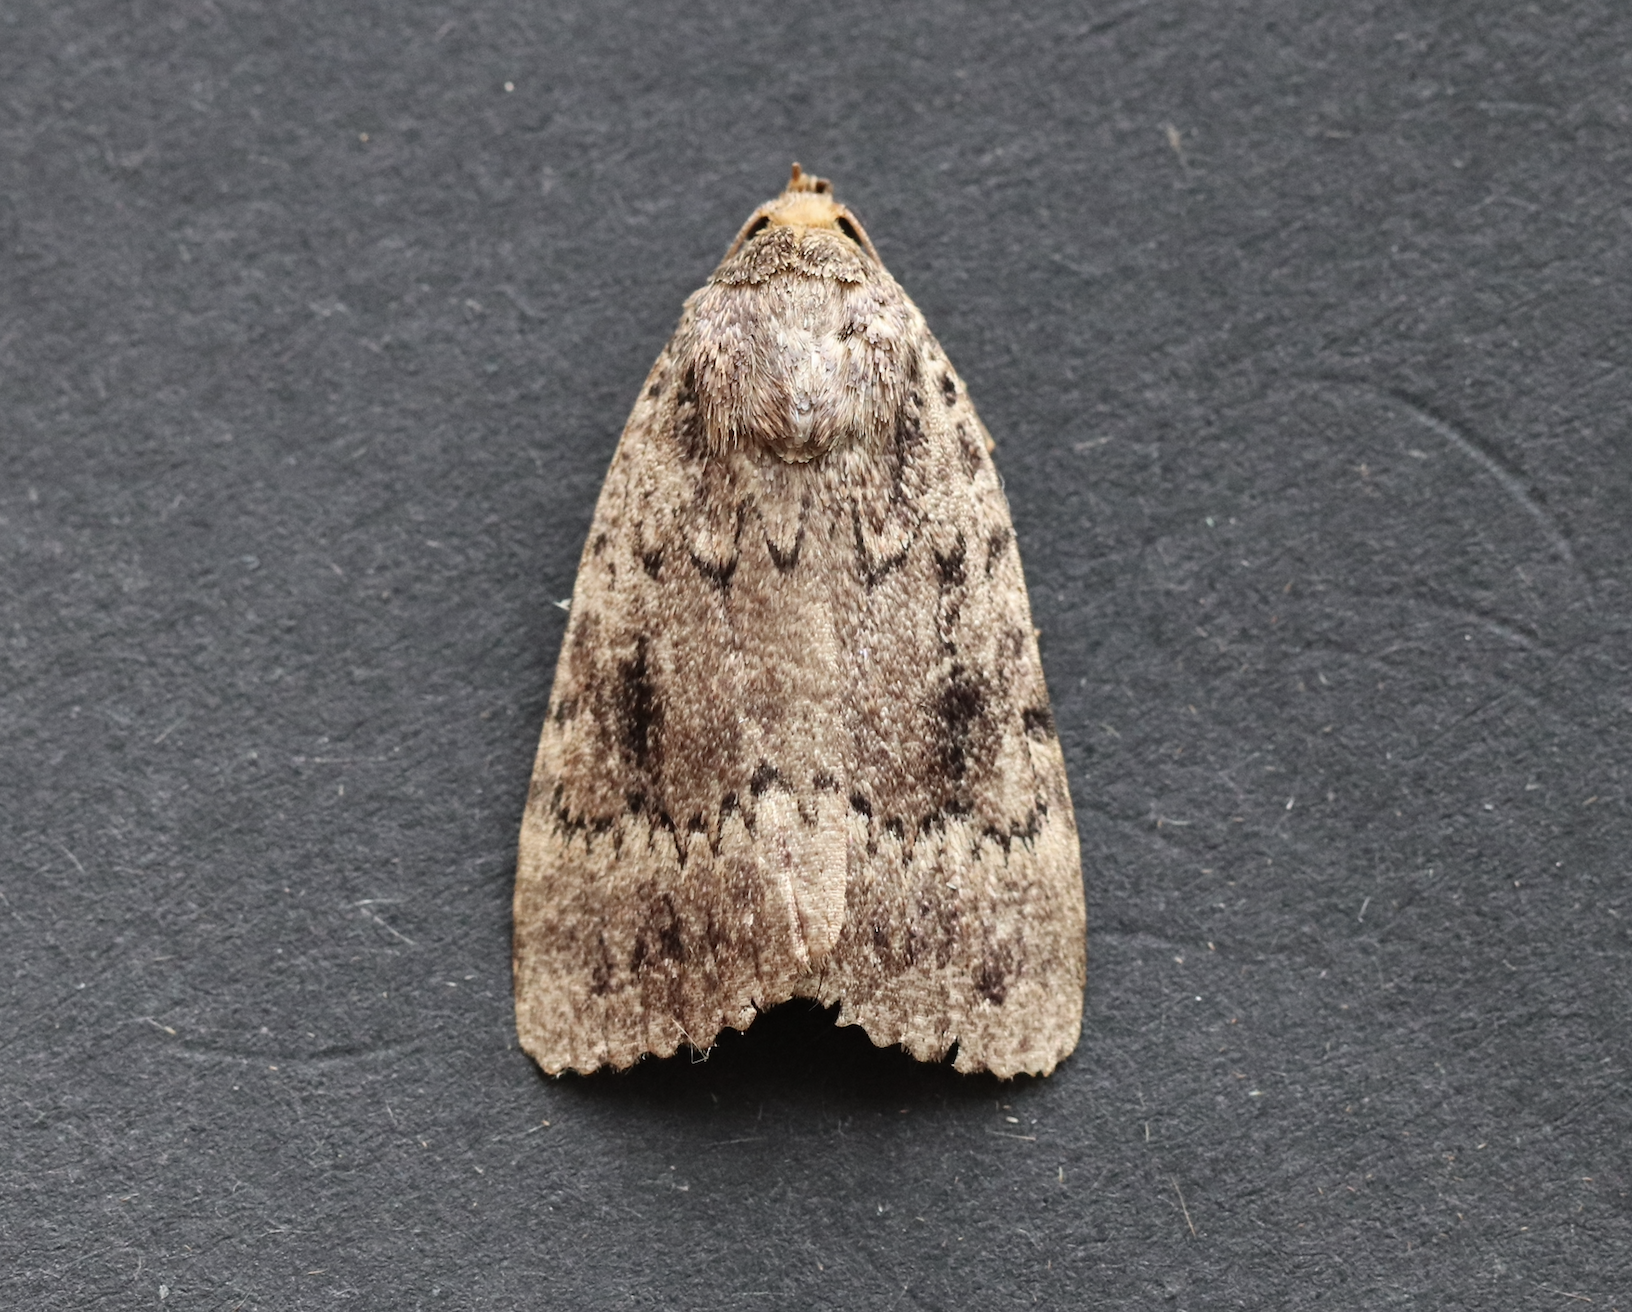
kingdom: Animalia
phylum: Arthropoda
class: Insecta
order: Lepidoptera
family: Noctuidae
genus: Amphipyra
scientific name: Amphipyra pyramidea
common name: Copper underwing
